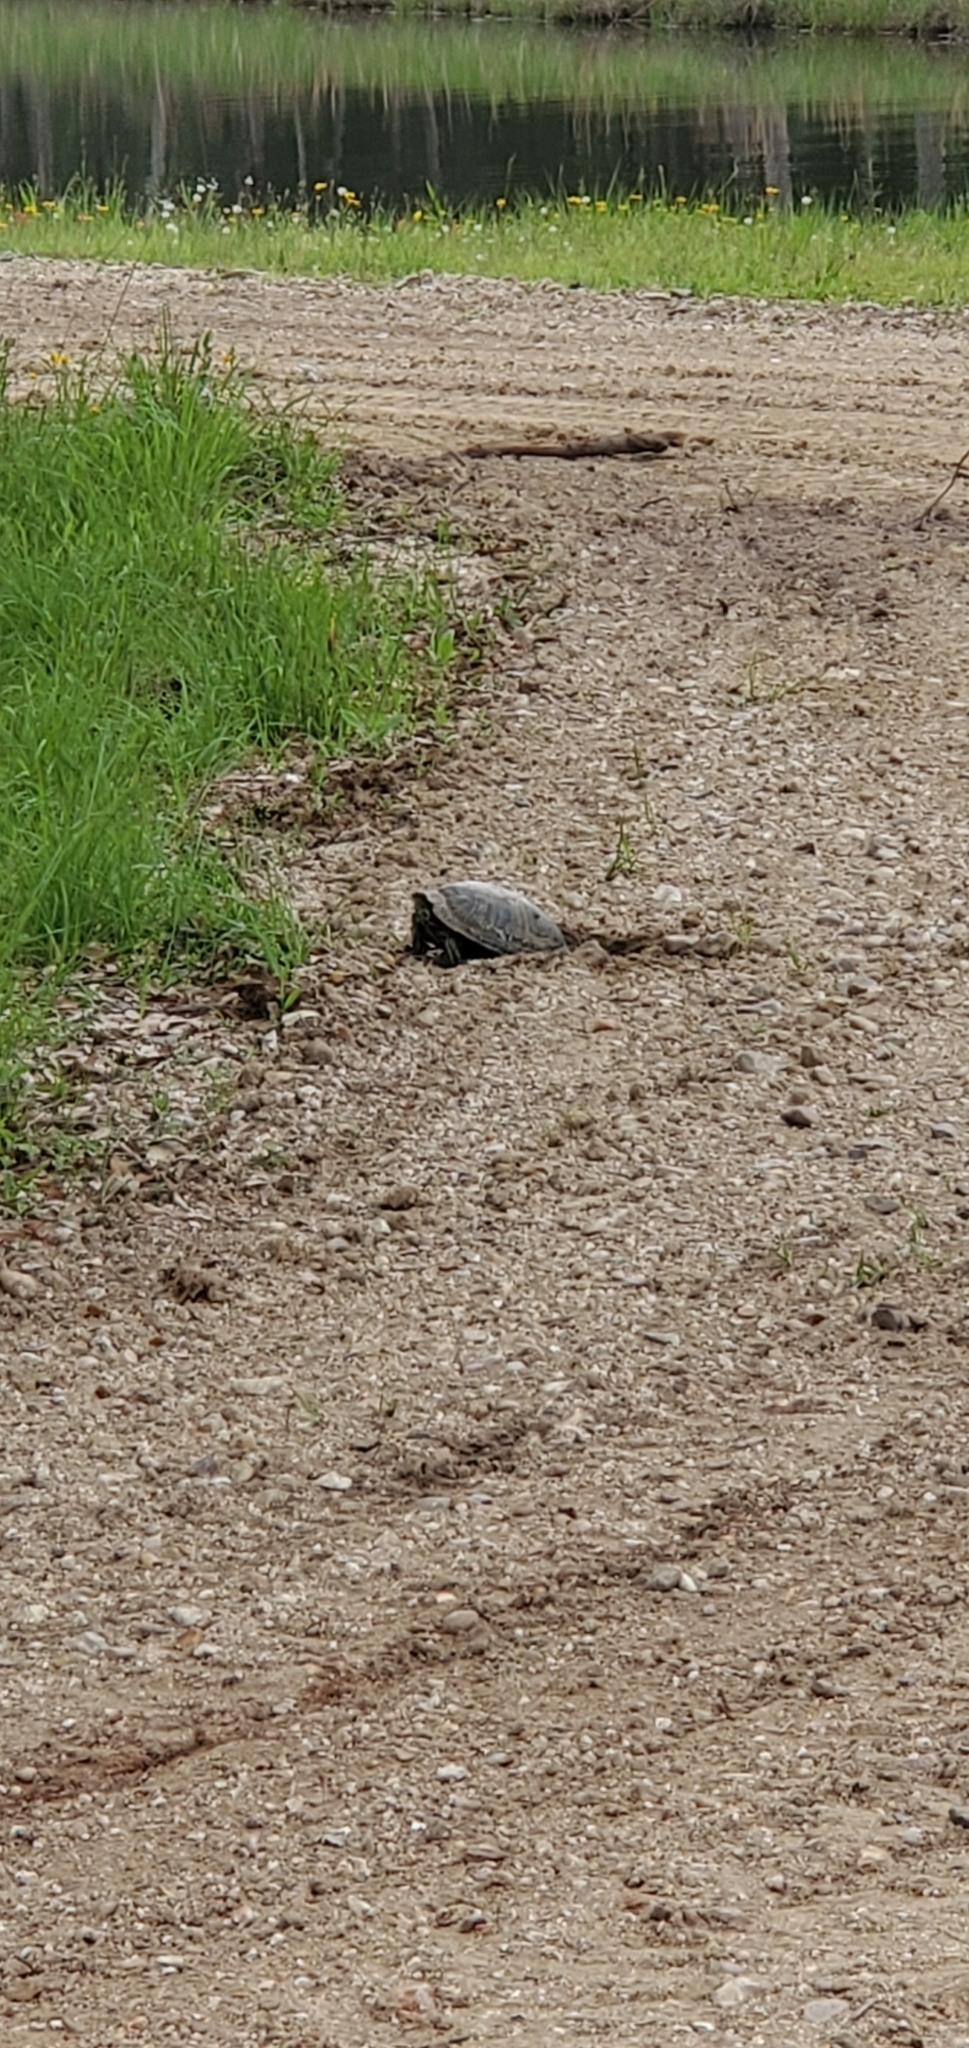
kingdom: Animalia
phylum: Chordata
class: Testudines
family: Emydidae
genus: Trachemys
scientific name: Trachemys scripta
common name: Slider
